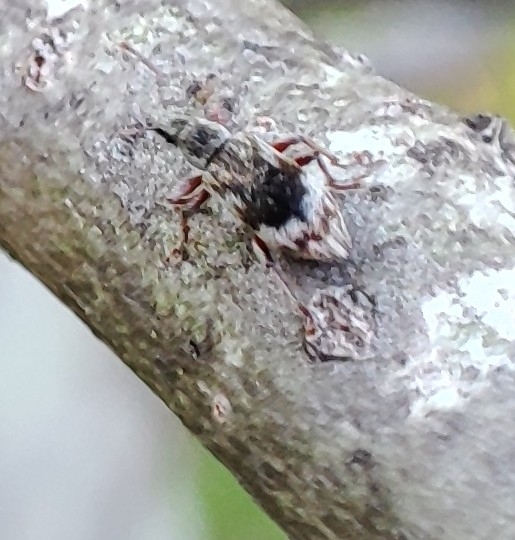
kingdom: Animalia
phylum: Arthropoda
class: Insecta
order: Coleoptera
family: Curculionidae
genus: Polydrusus
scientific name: Polydrusus tereticollis
